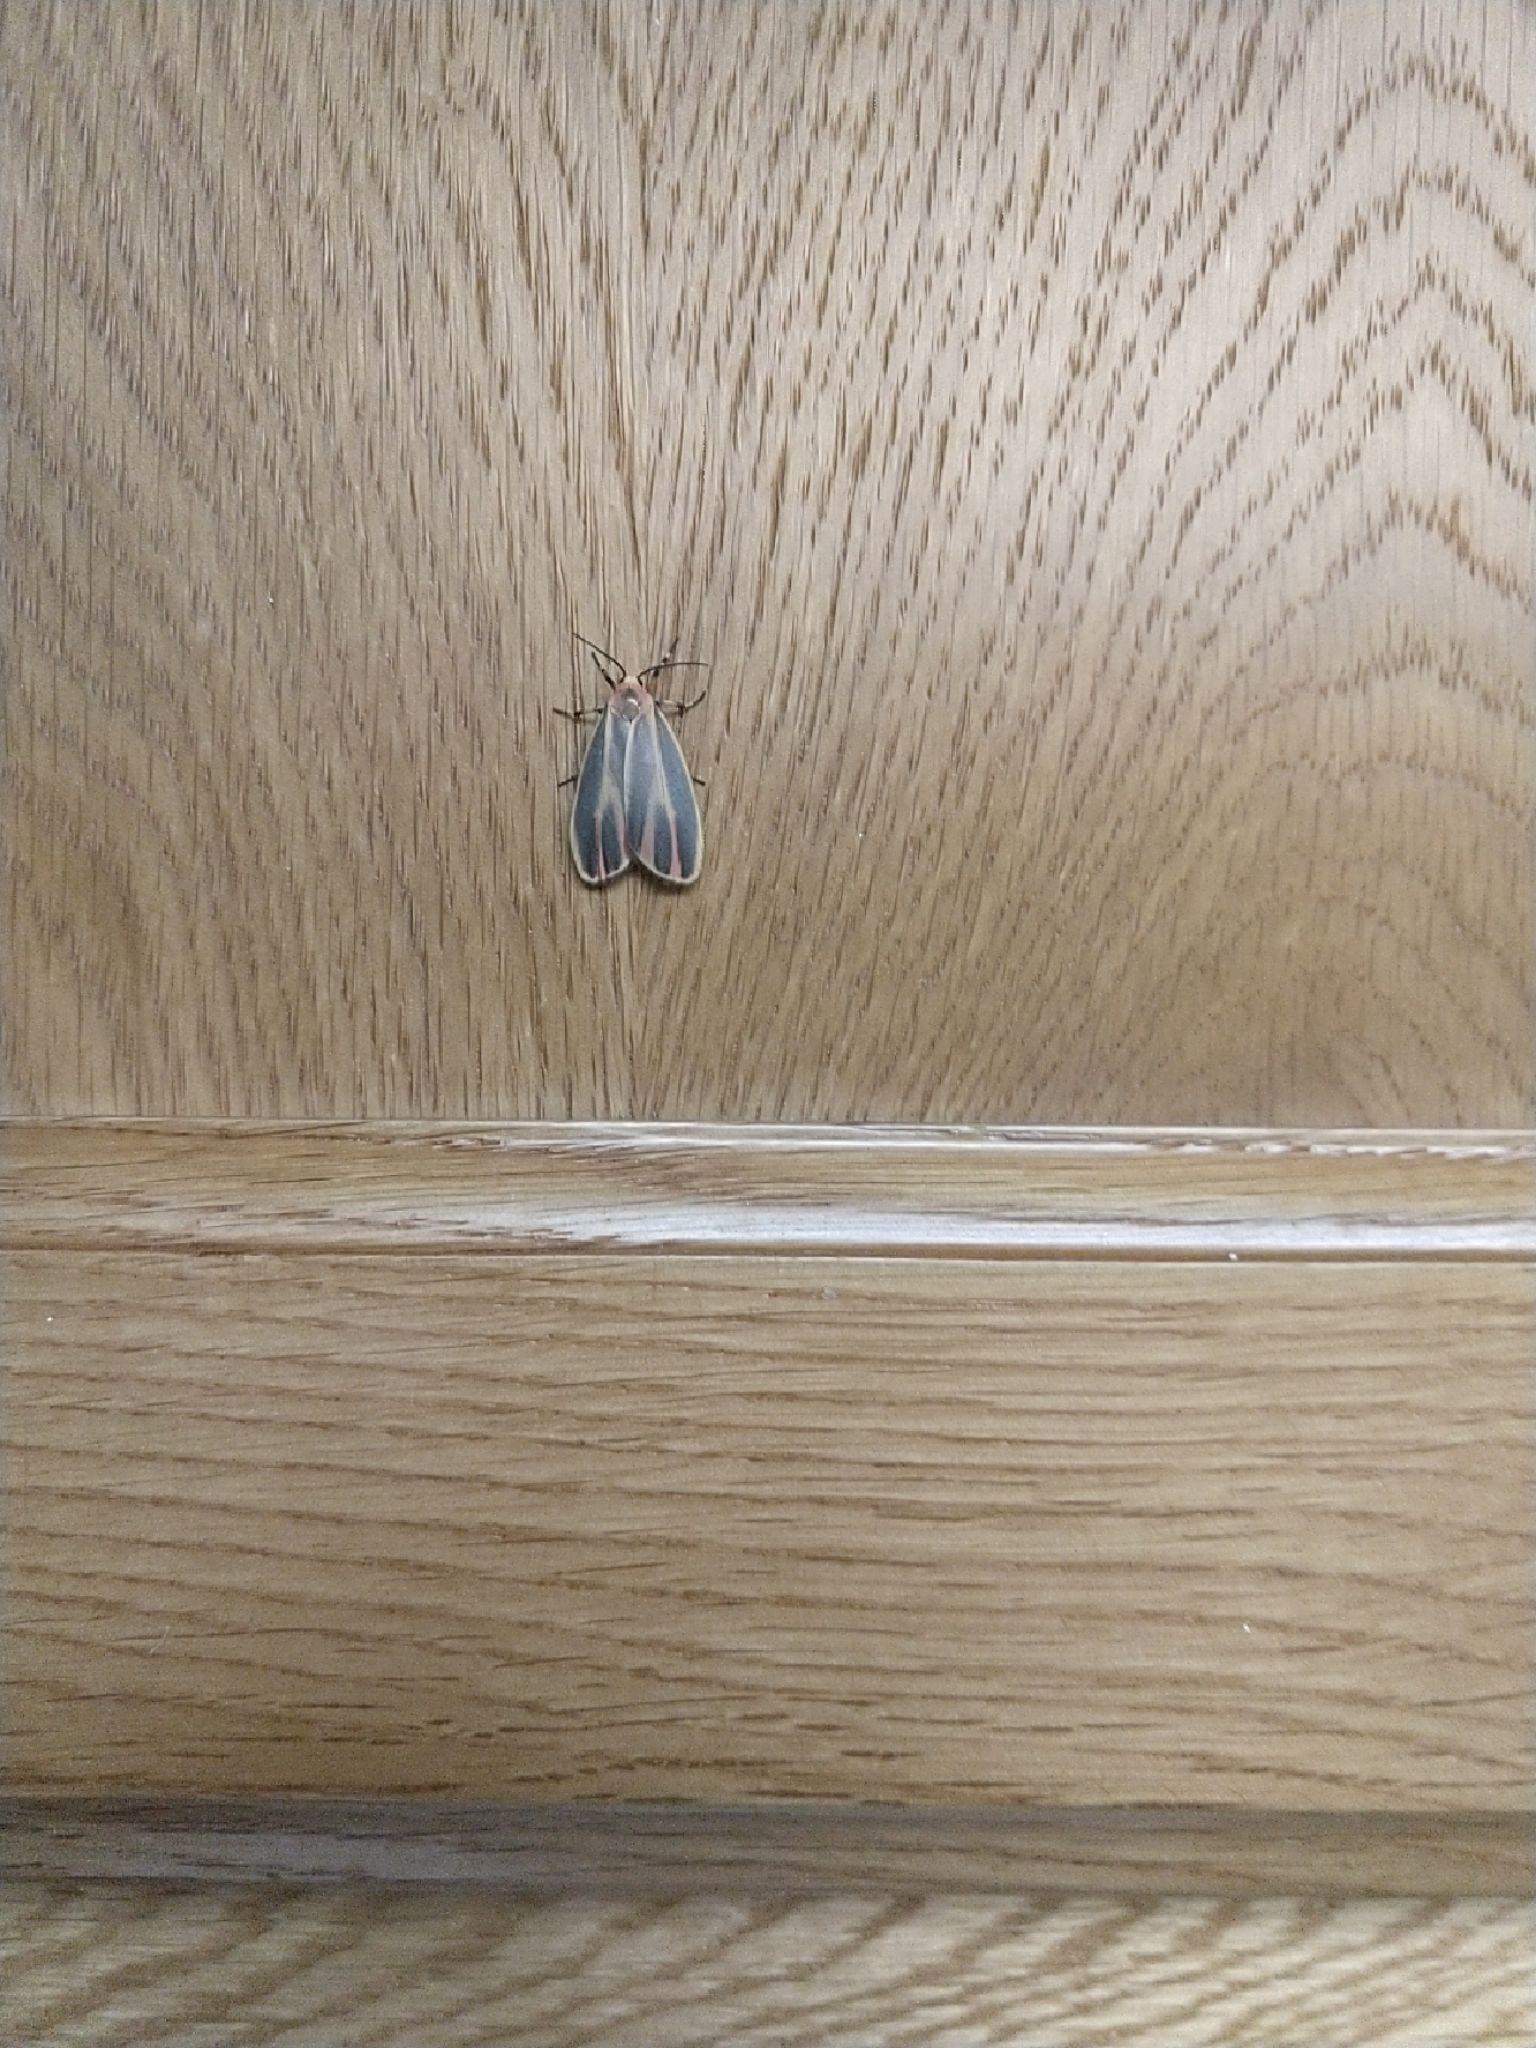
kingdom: Animalia
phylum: Arthropoda
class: Insecta
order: Lepidoptera
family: Erebidae
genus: Hypoprepia
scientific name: Hypoprepia fucosa
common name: Painted lichen moth
